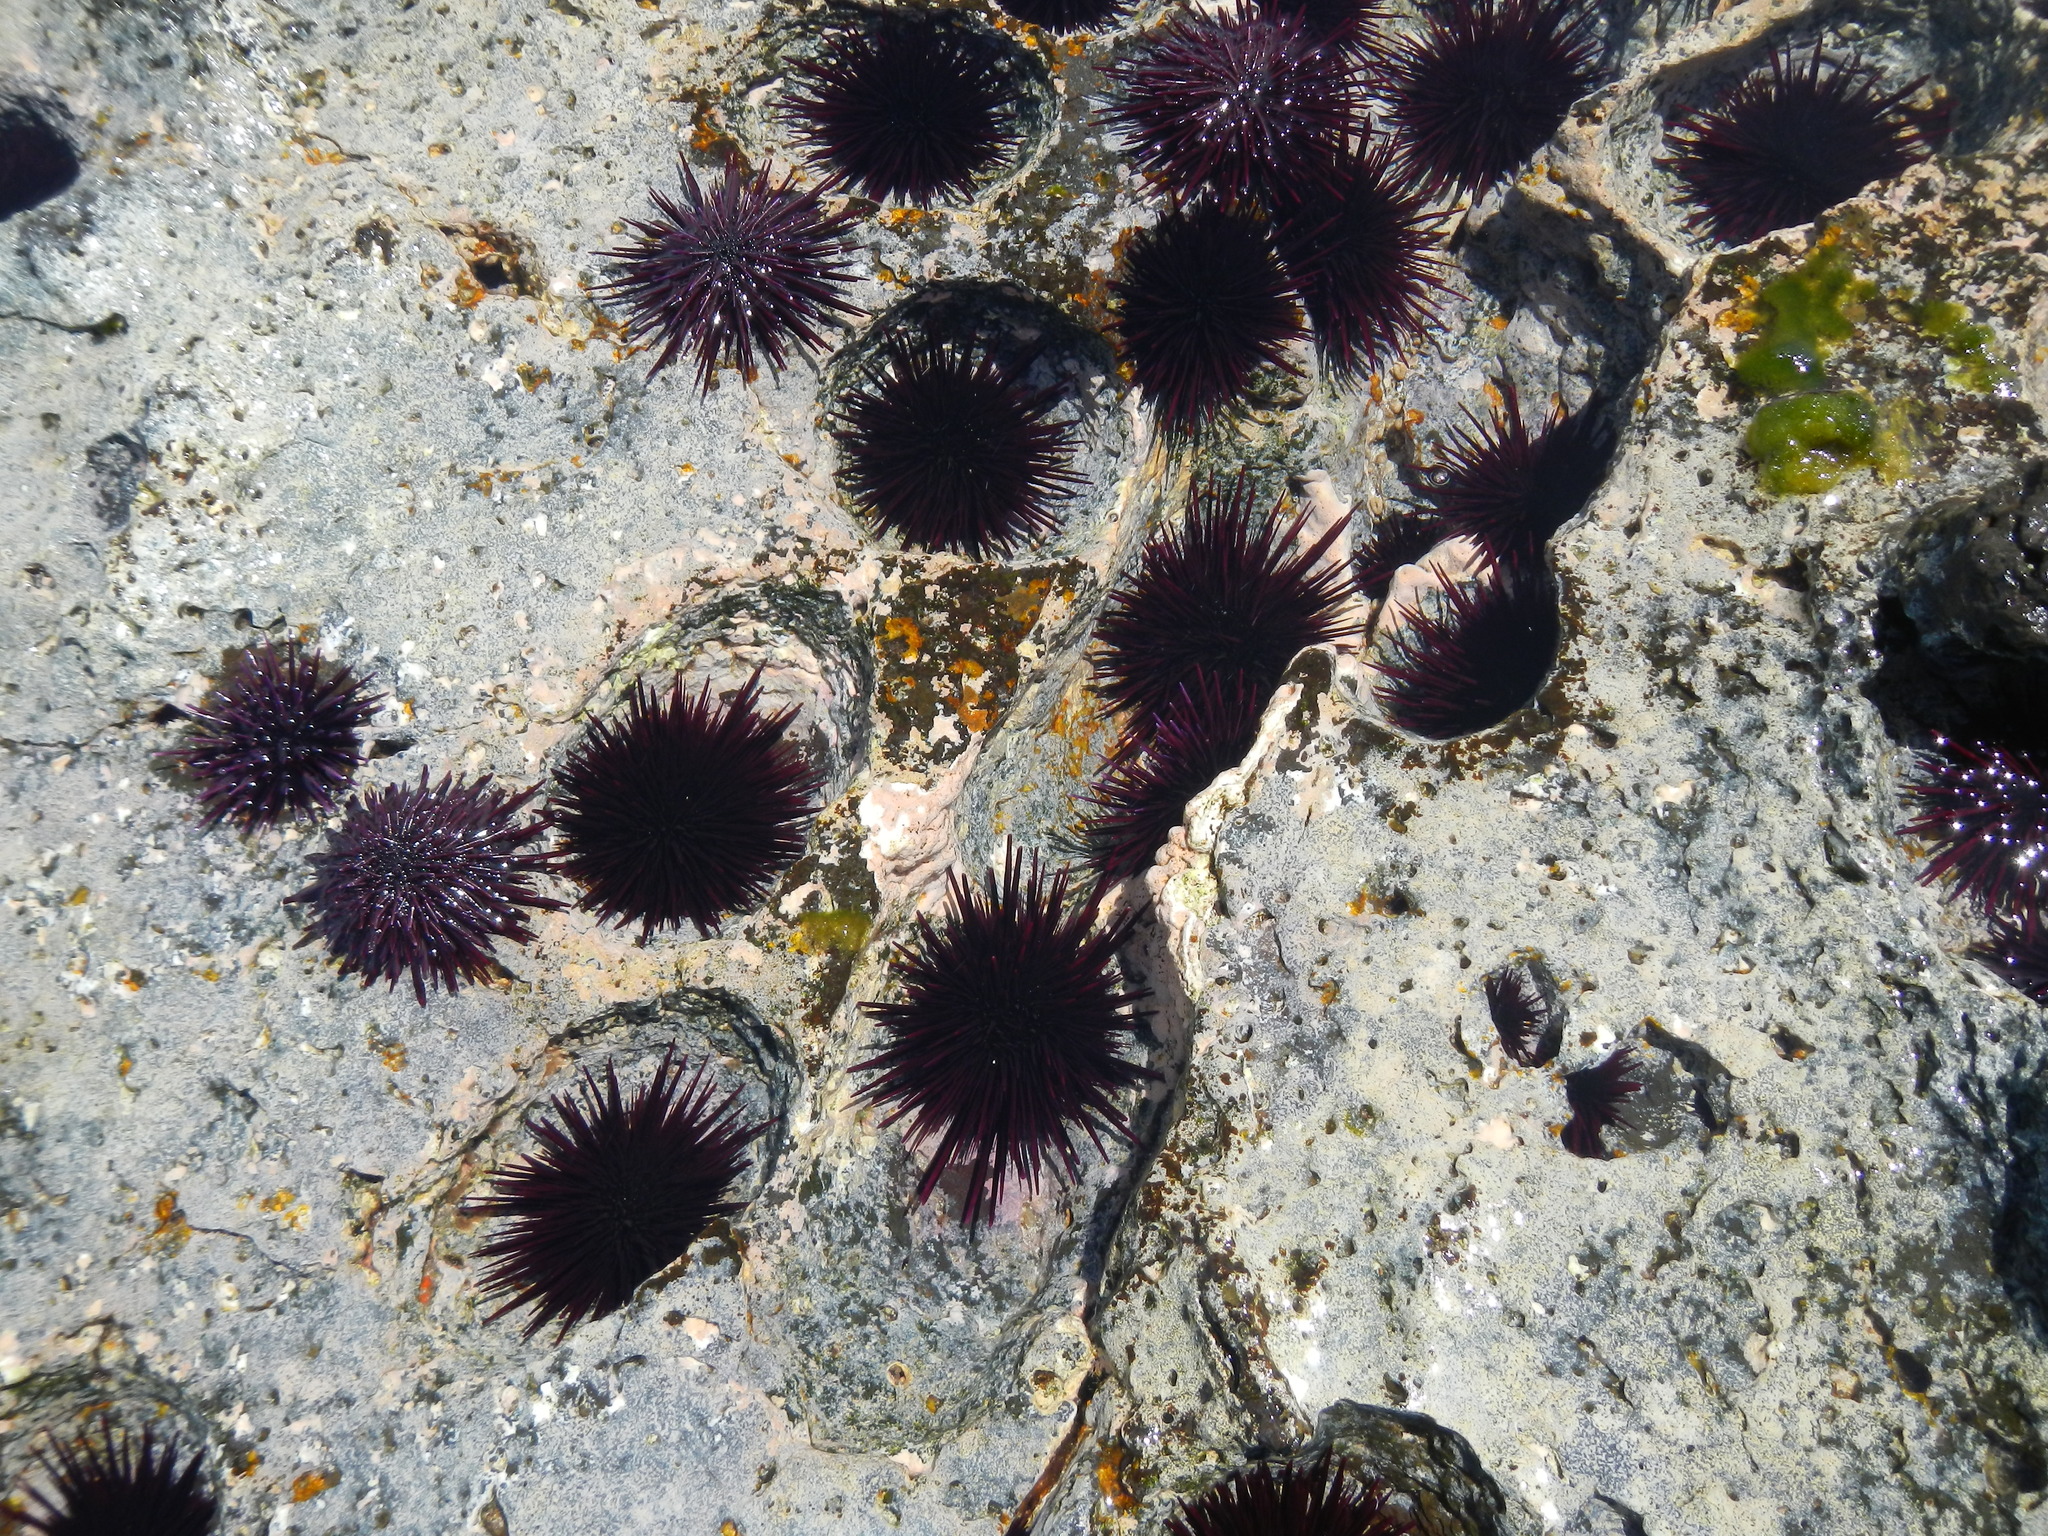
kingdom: Animalia
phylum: Echinodermata
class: Echinoidea
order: Camarodonta
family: Echinometridae
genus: Echinometra
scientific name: Echinometra insularis
